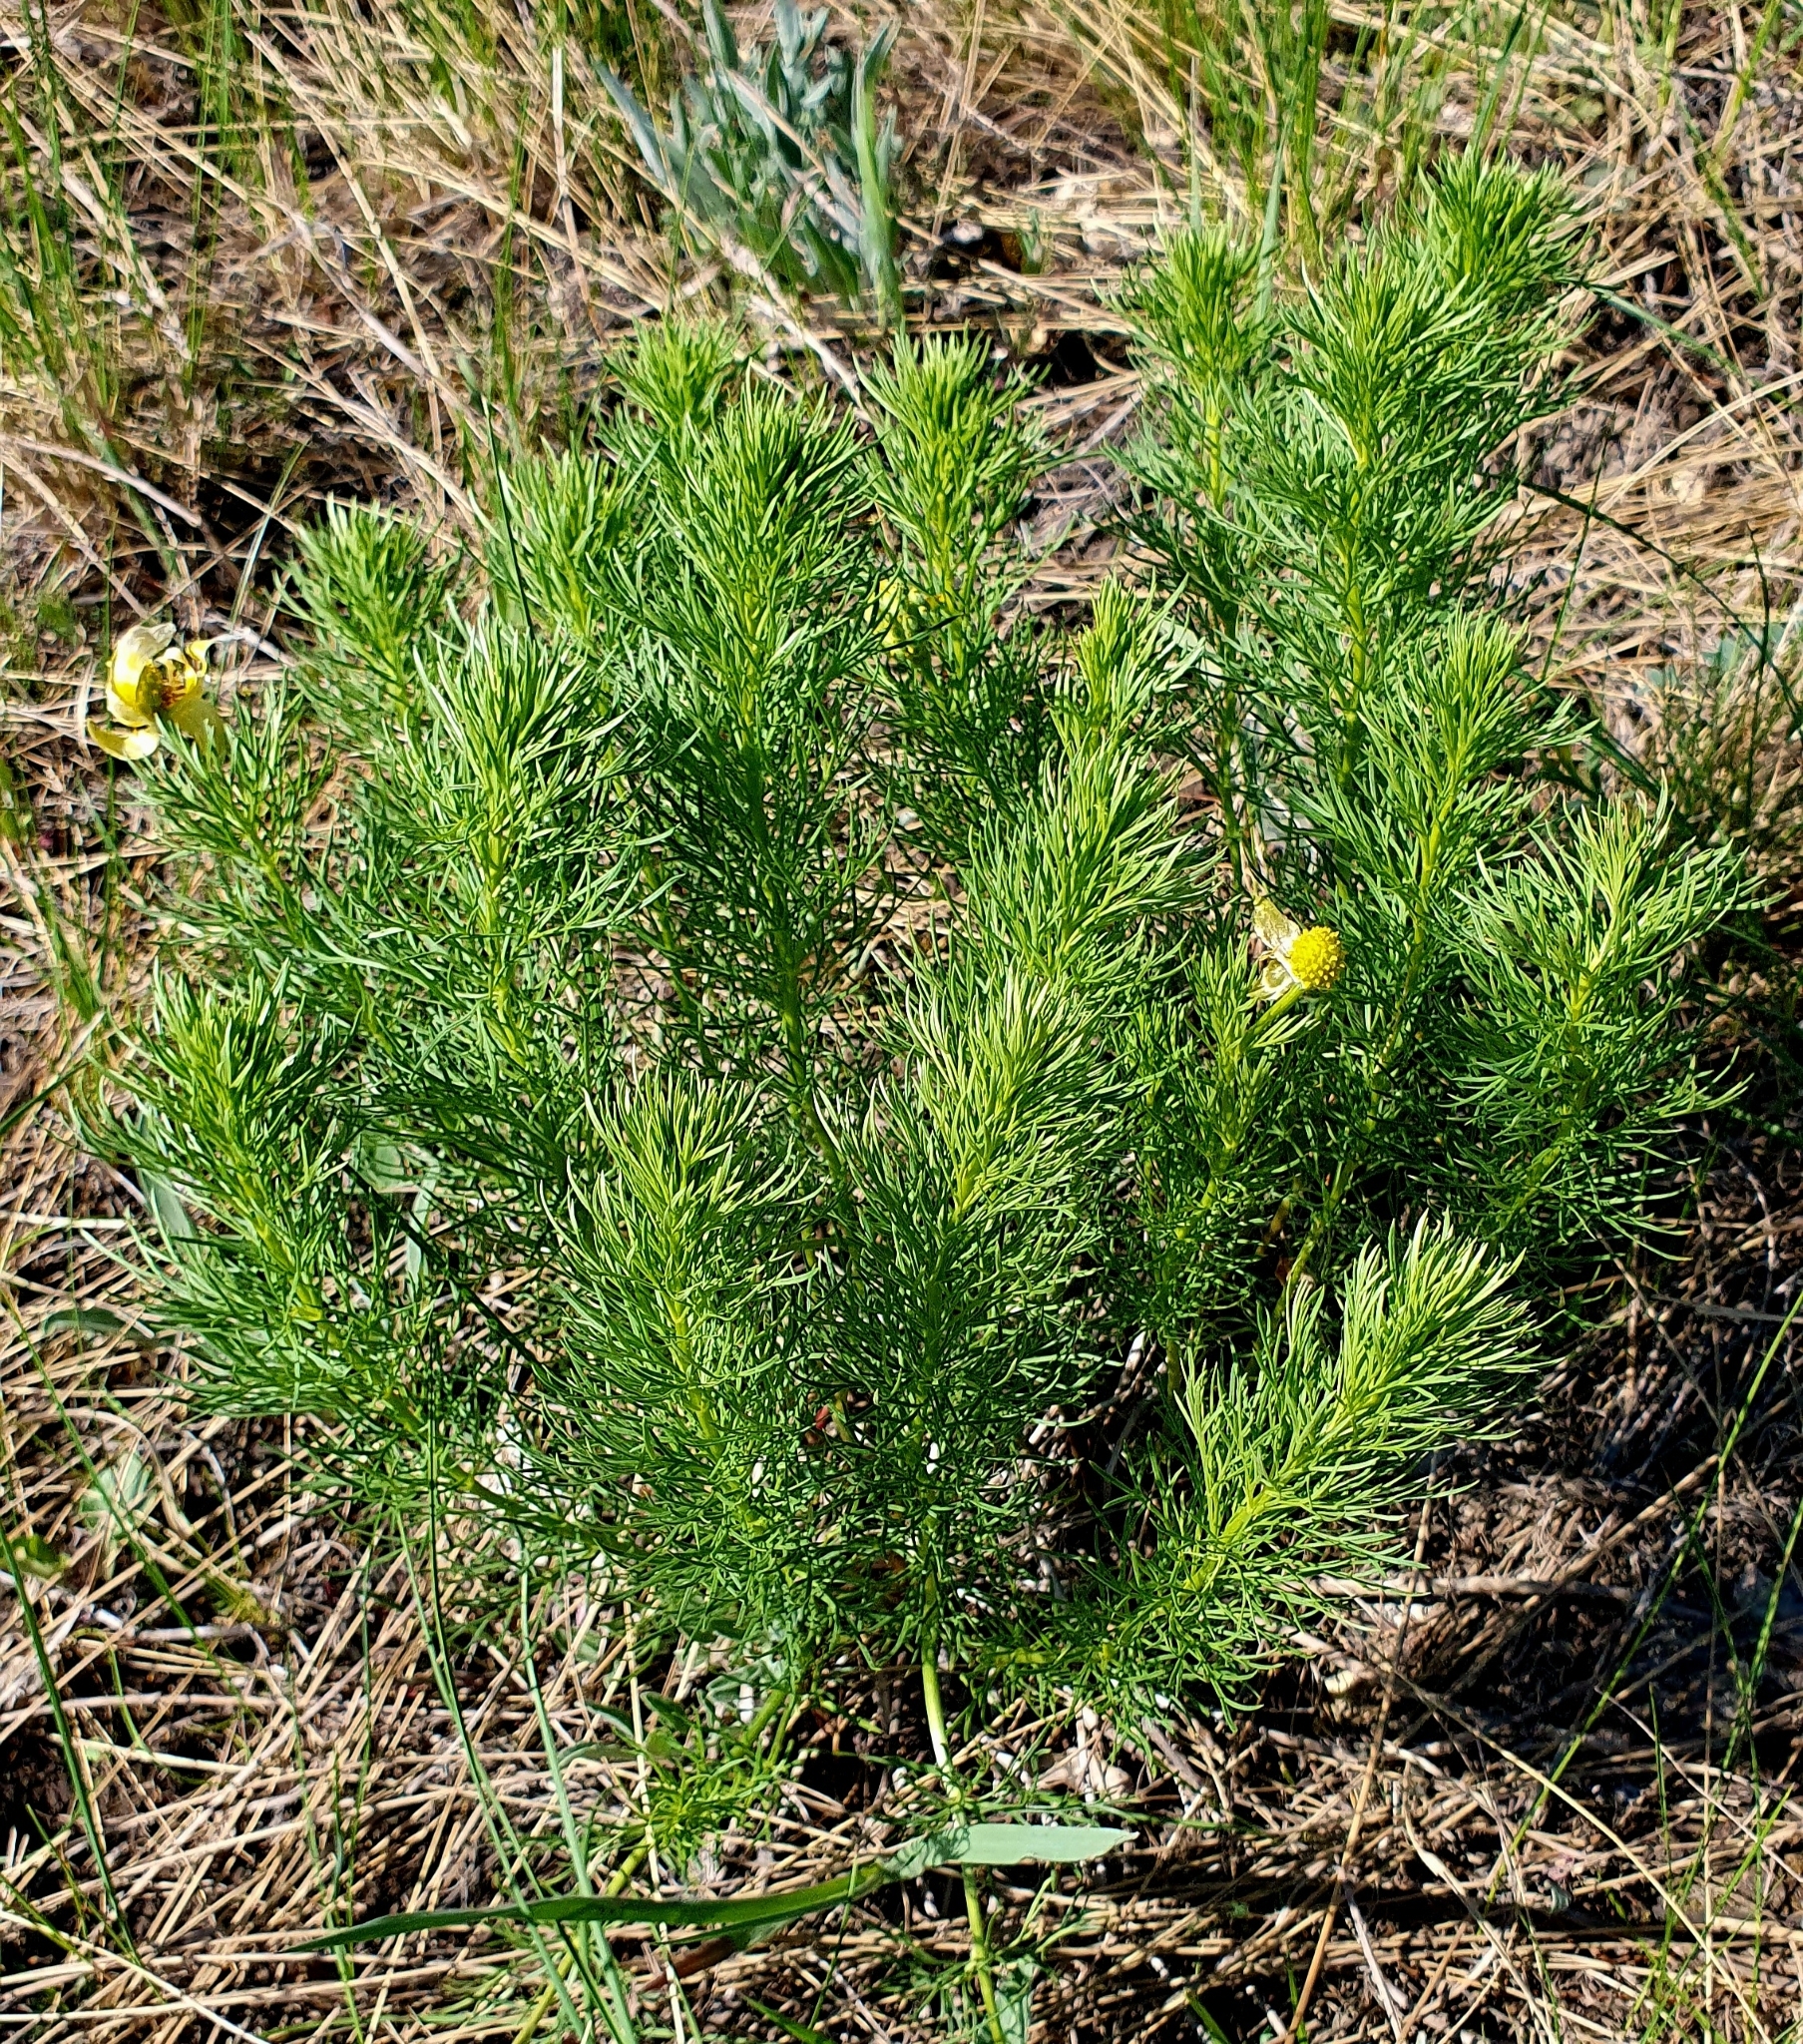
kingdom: Plantae
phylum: Tracheophyta
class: Magnoliopsida
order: Ranunculales
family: Ranunculaceae
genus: Adonis
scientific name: Adonis vernalis
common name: Yellow pheasants-eye
